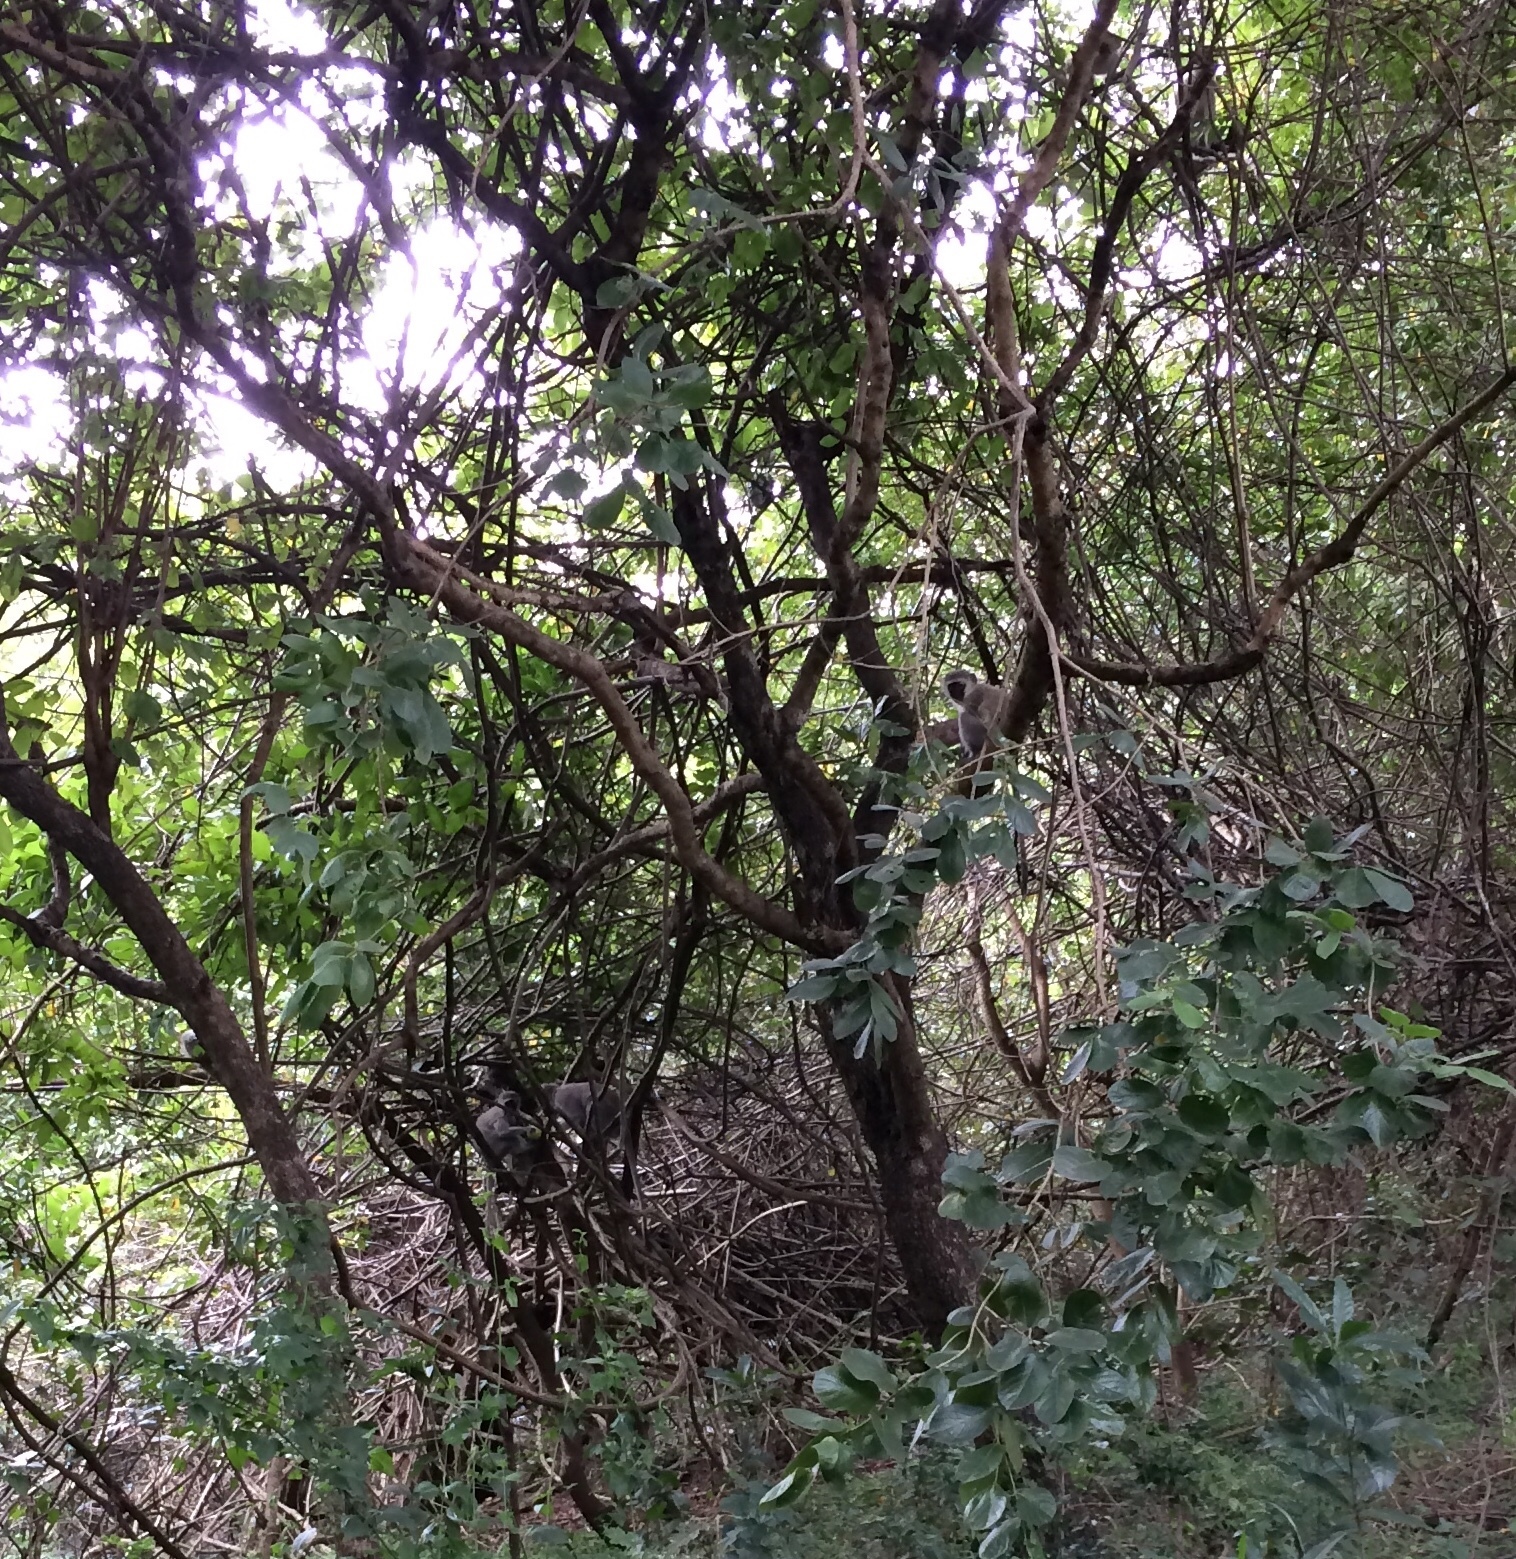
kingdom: Animalia
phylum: Chordata
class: Mammalia
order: Primates
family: Cercopithecidae
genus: Chlorocebus
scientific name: Chlorocebus pygerythrus
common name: Vervet monkey
